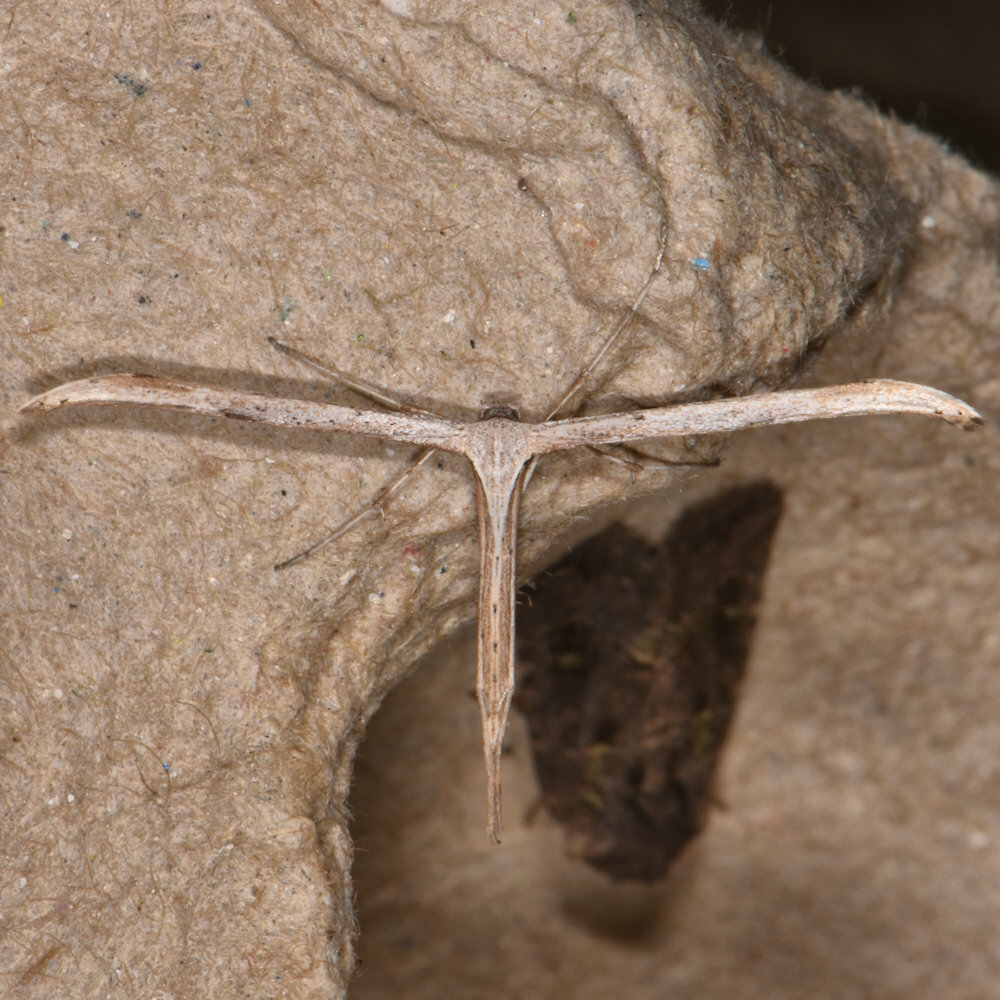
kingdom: Animalia
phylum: Arthropoda
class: Insecta
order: Lepidoptera
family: Pterophoridae
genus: Emmelina
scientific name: Emmelina monodactyla
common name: Common plume
